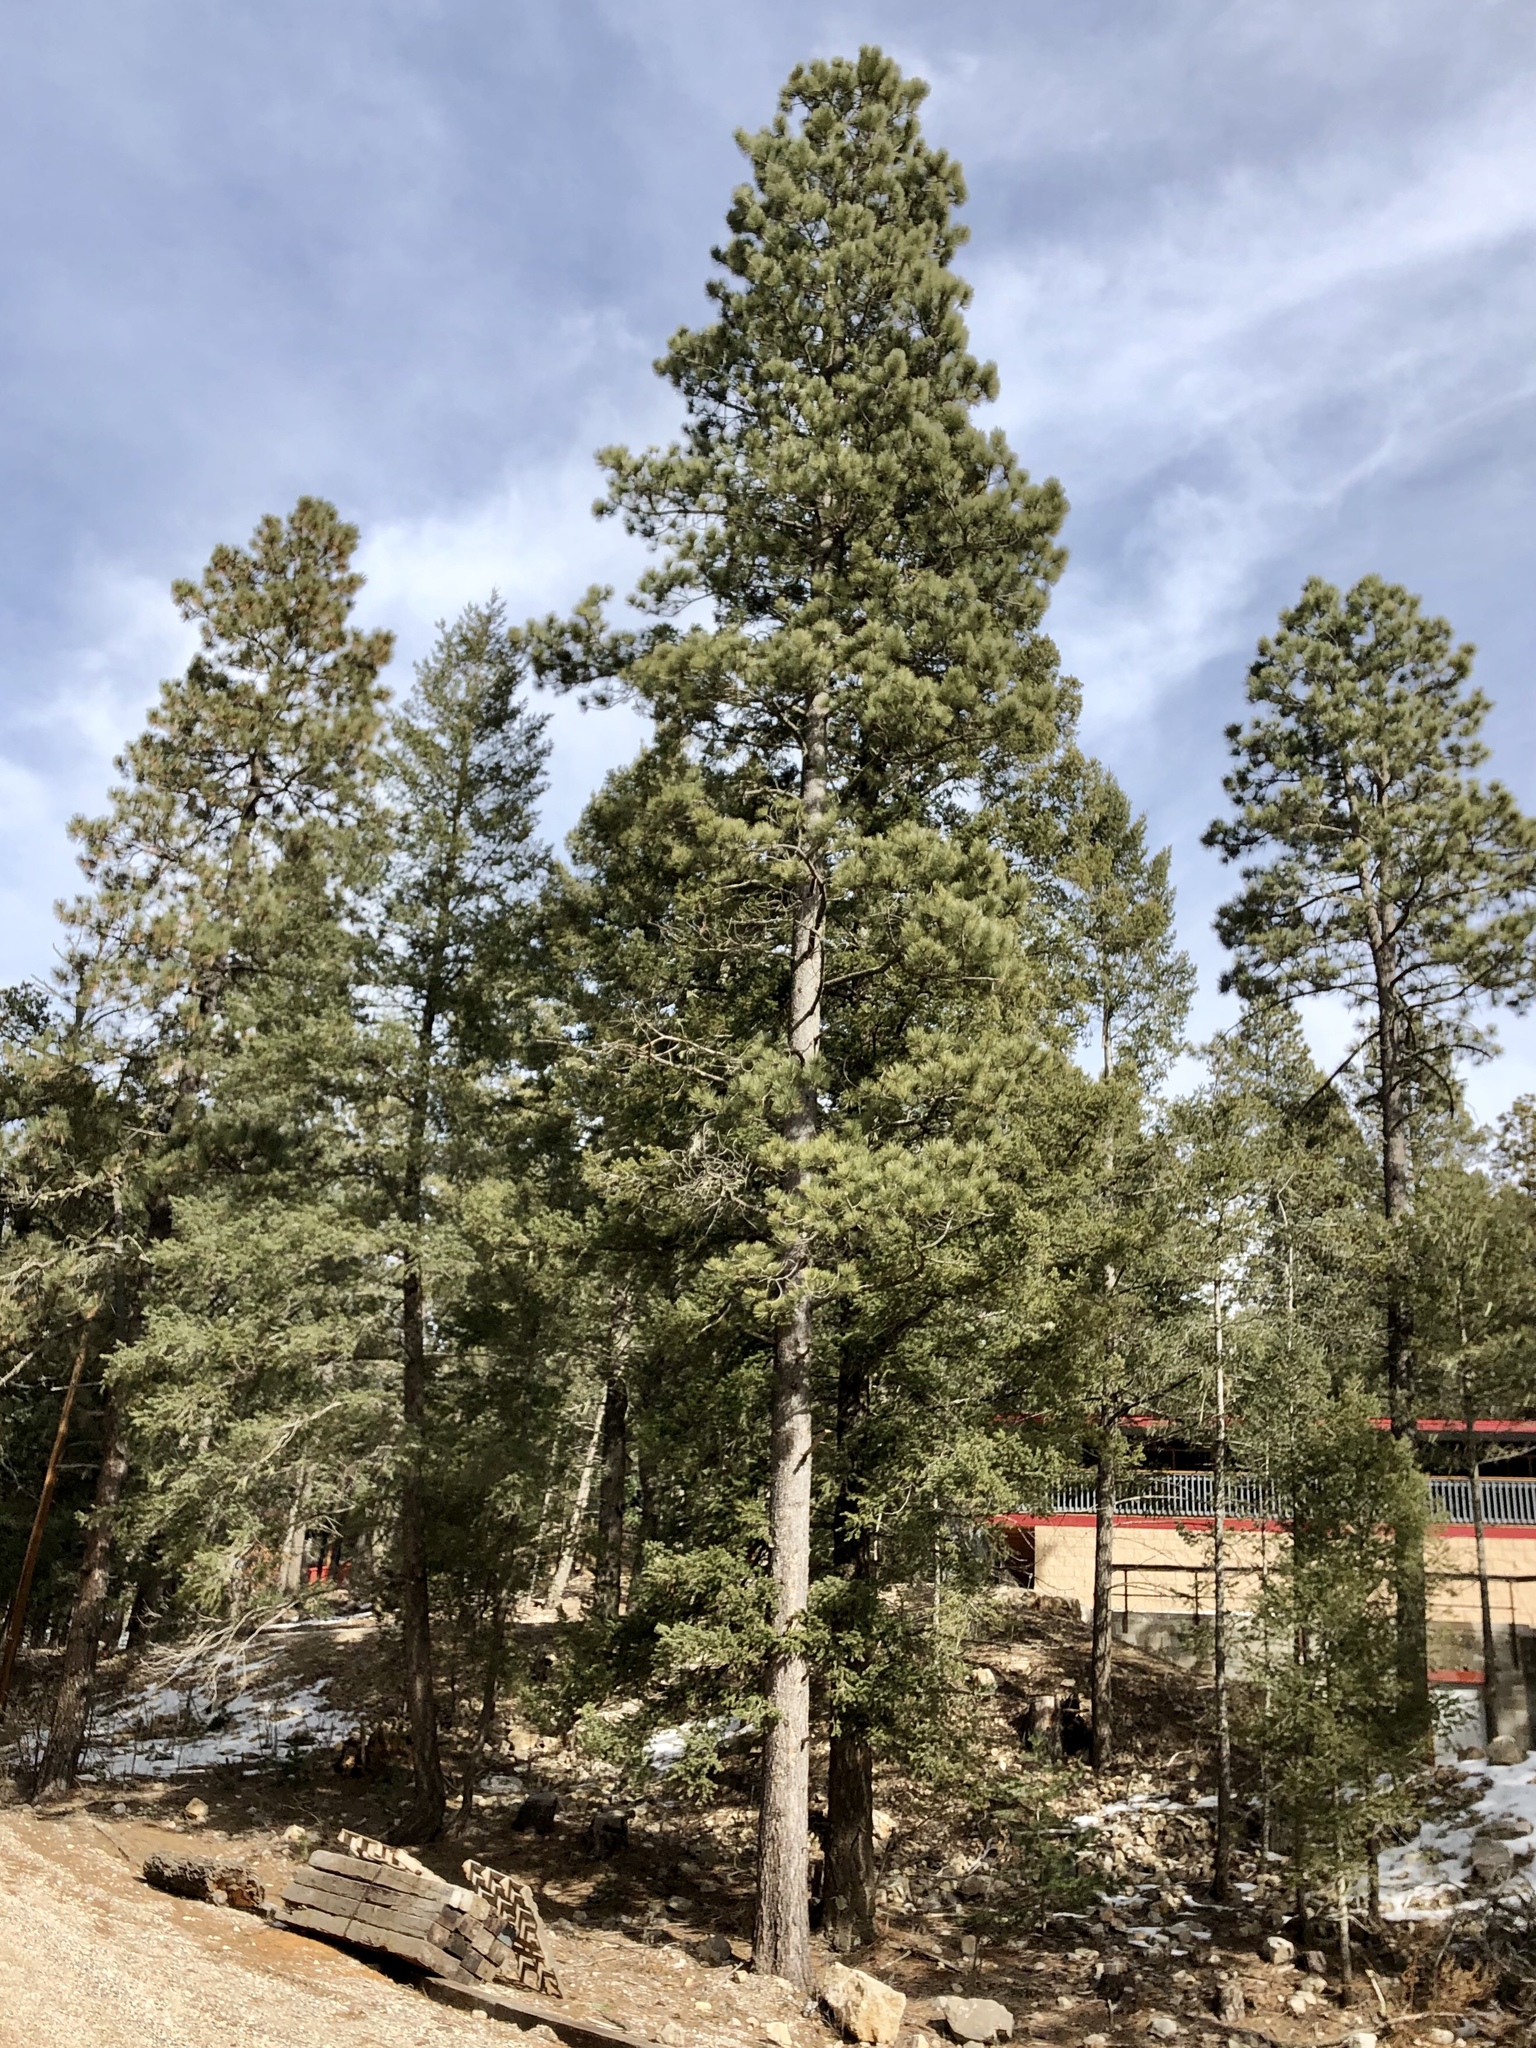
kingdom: Plantae
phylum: Tracheophyta
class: Pinopsida
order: Pinales
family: Pinaceae
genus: Pinus
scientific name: Pinus ponderosa
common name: Western yellow-pine
